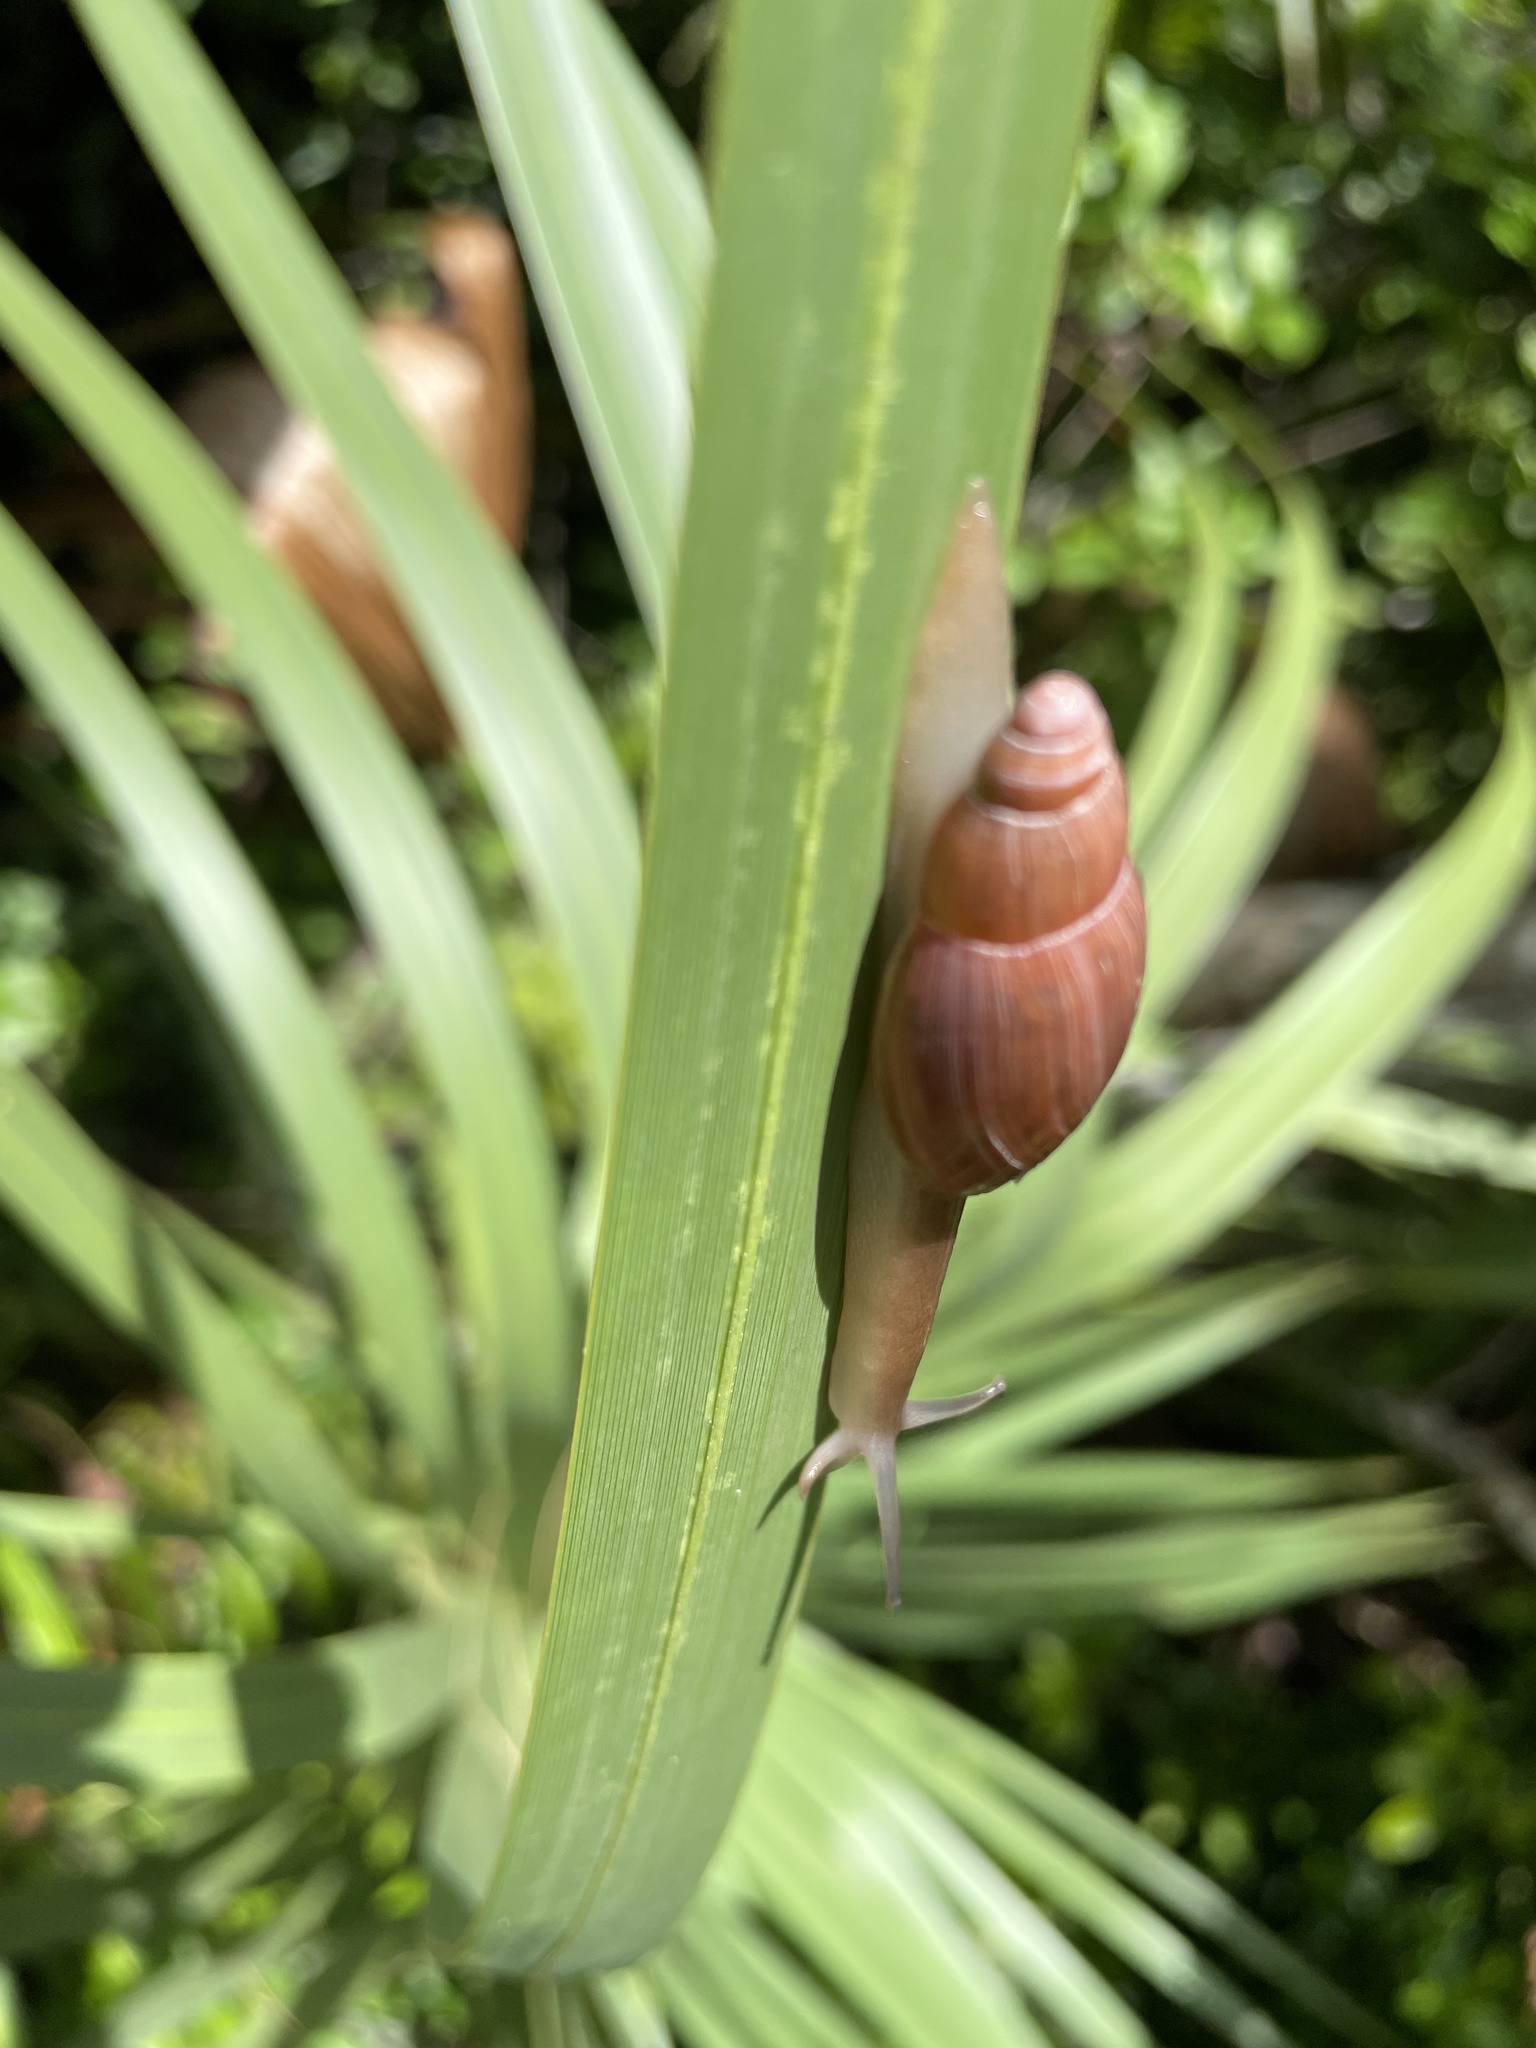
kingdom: Animalia
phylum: Mollusca
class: Gastropoda
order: Stylommatophora
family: Spiraxidae
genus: Euglandina
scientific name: Euglandina rosea
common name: Rosy wolfsnail
